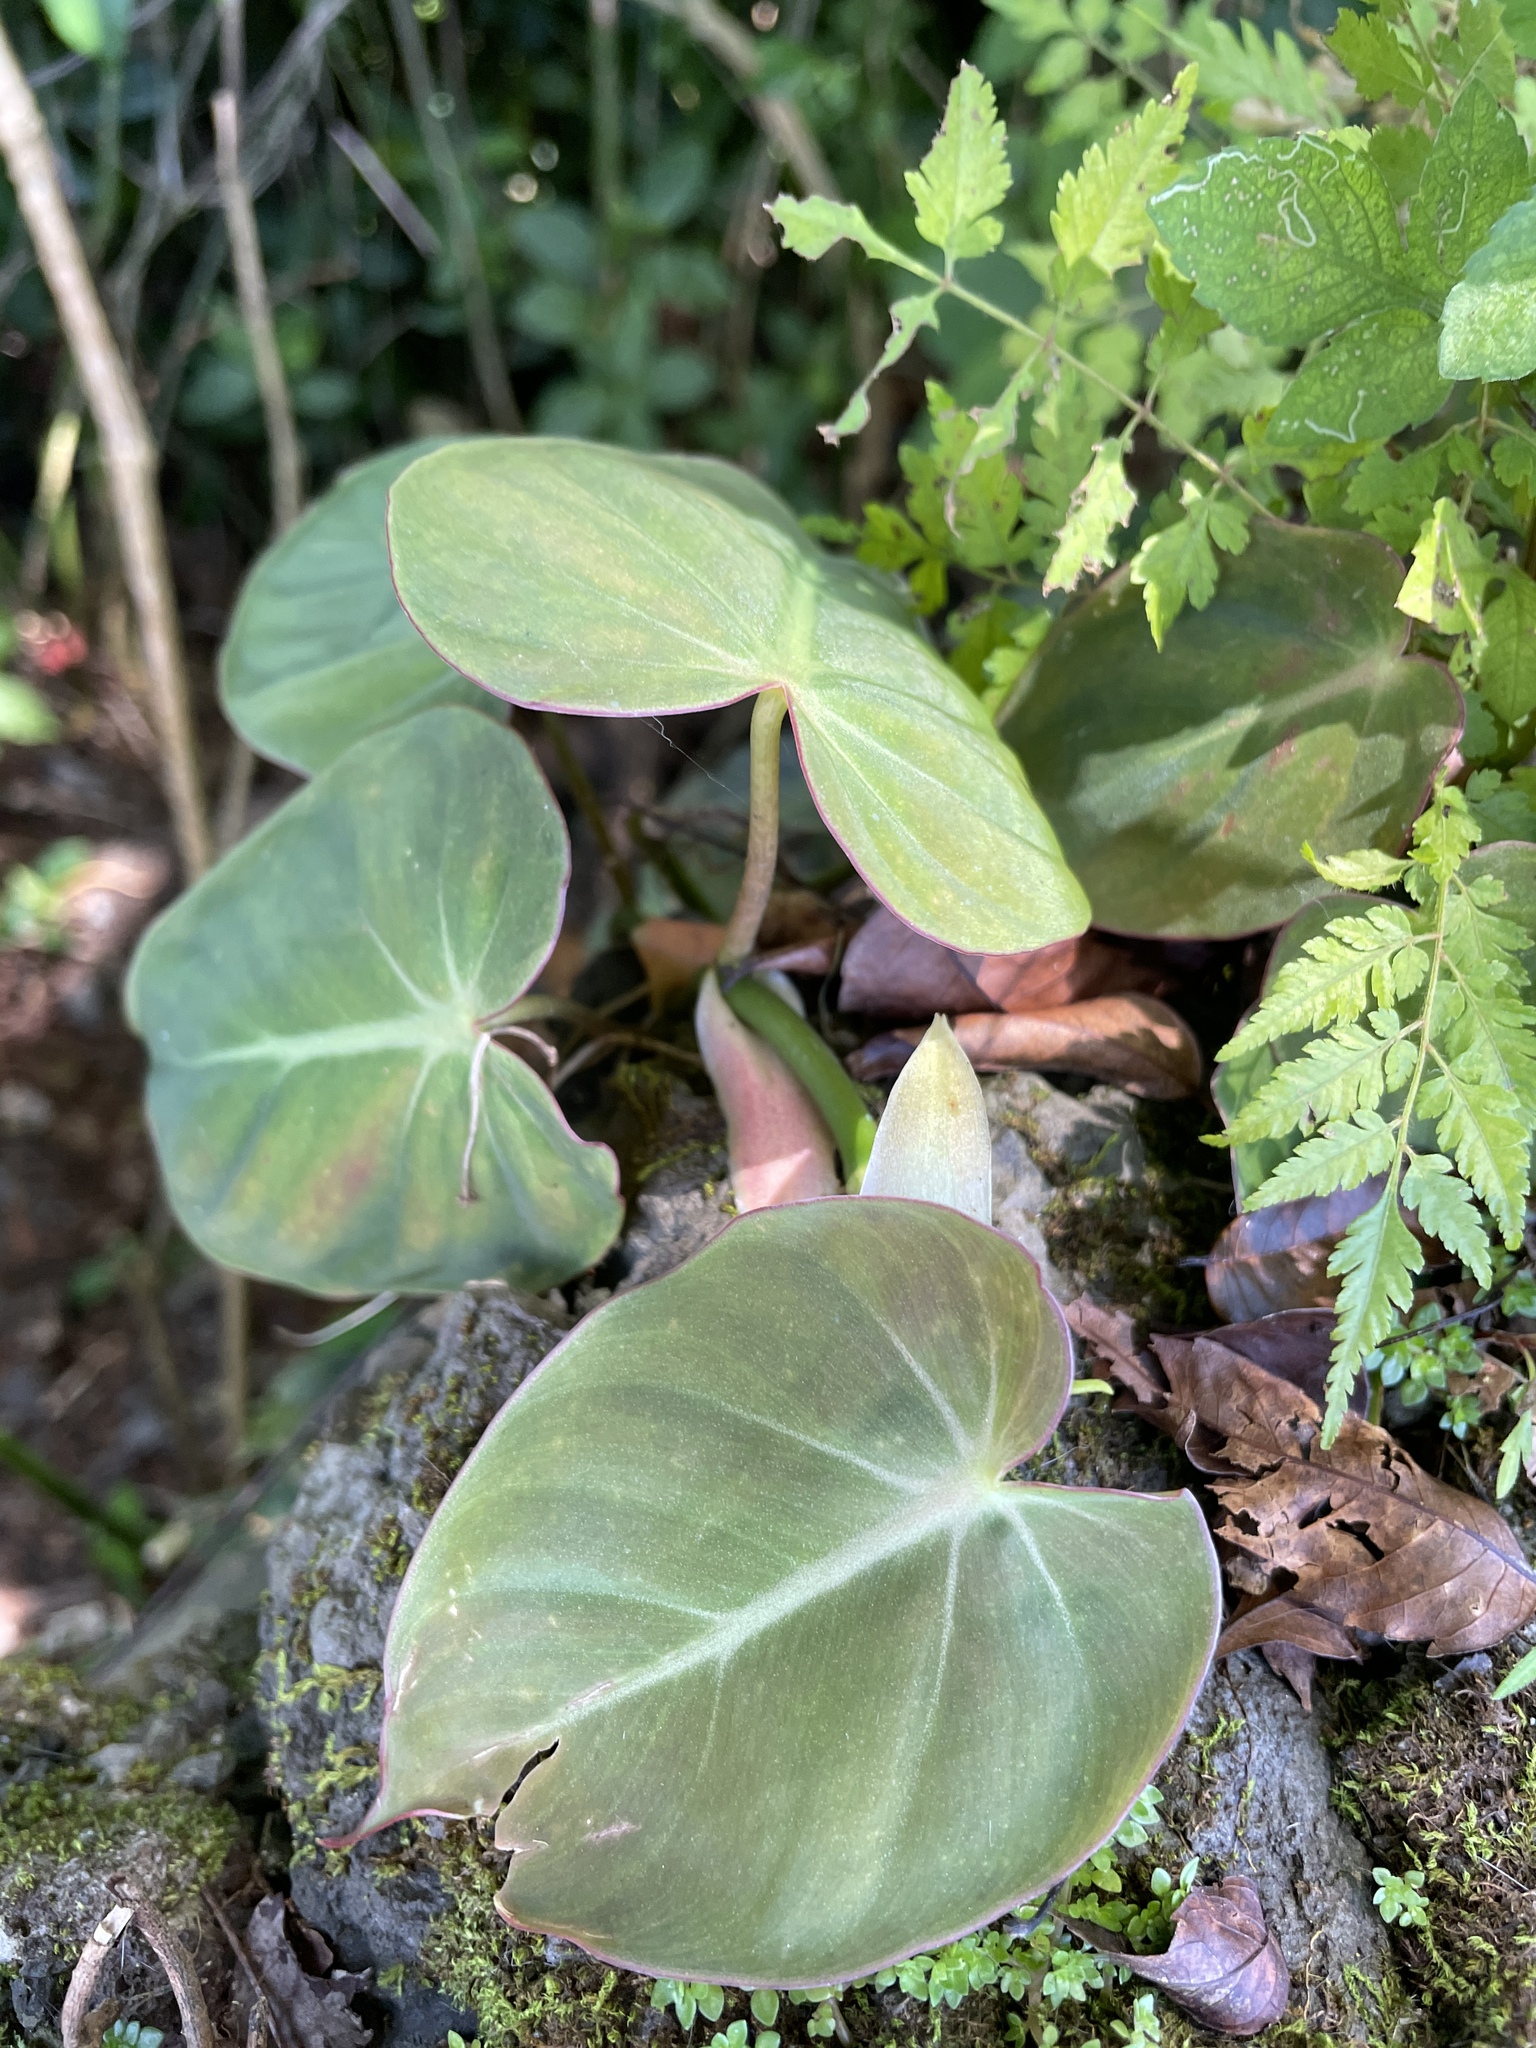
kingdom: Plantae
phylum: Tracheophyta
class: Liliopsida
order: Alismatales
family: Araceae
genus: Philodendron
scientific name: Philodendron hederaceum
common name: Vilevine
